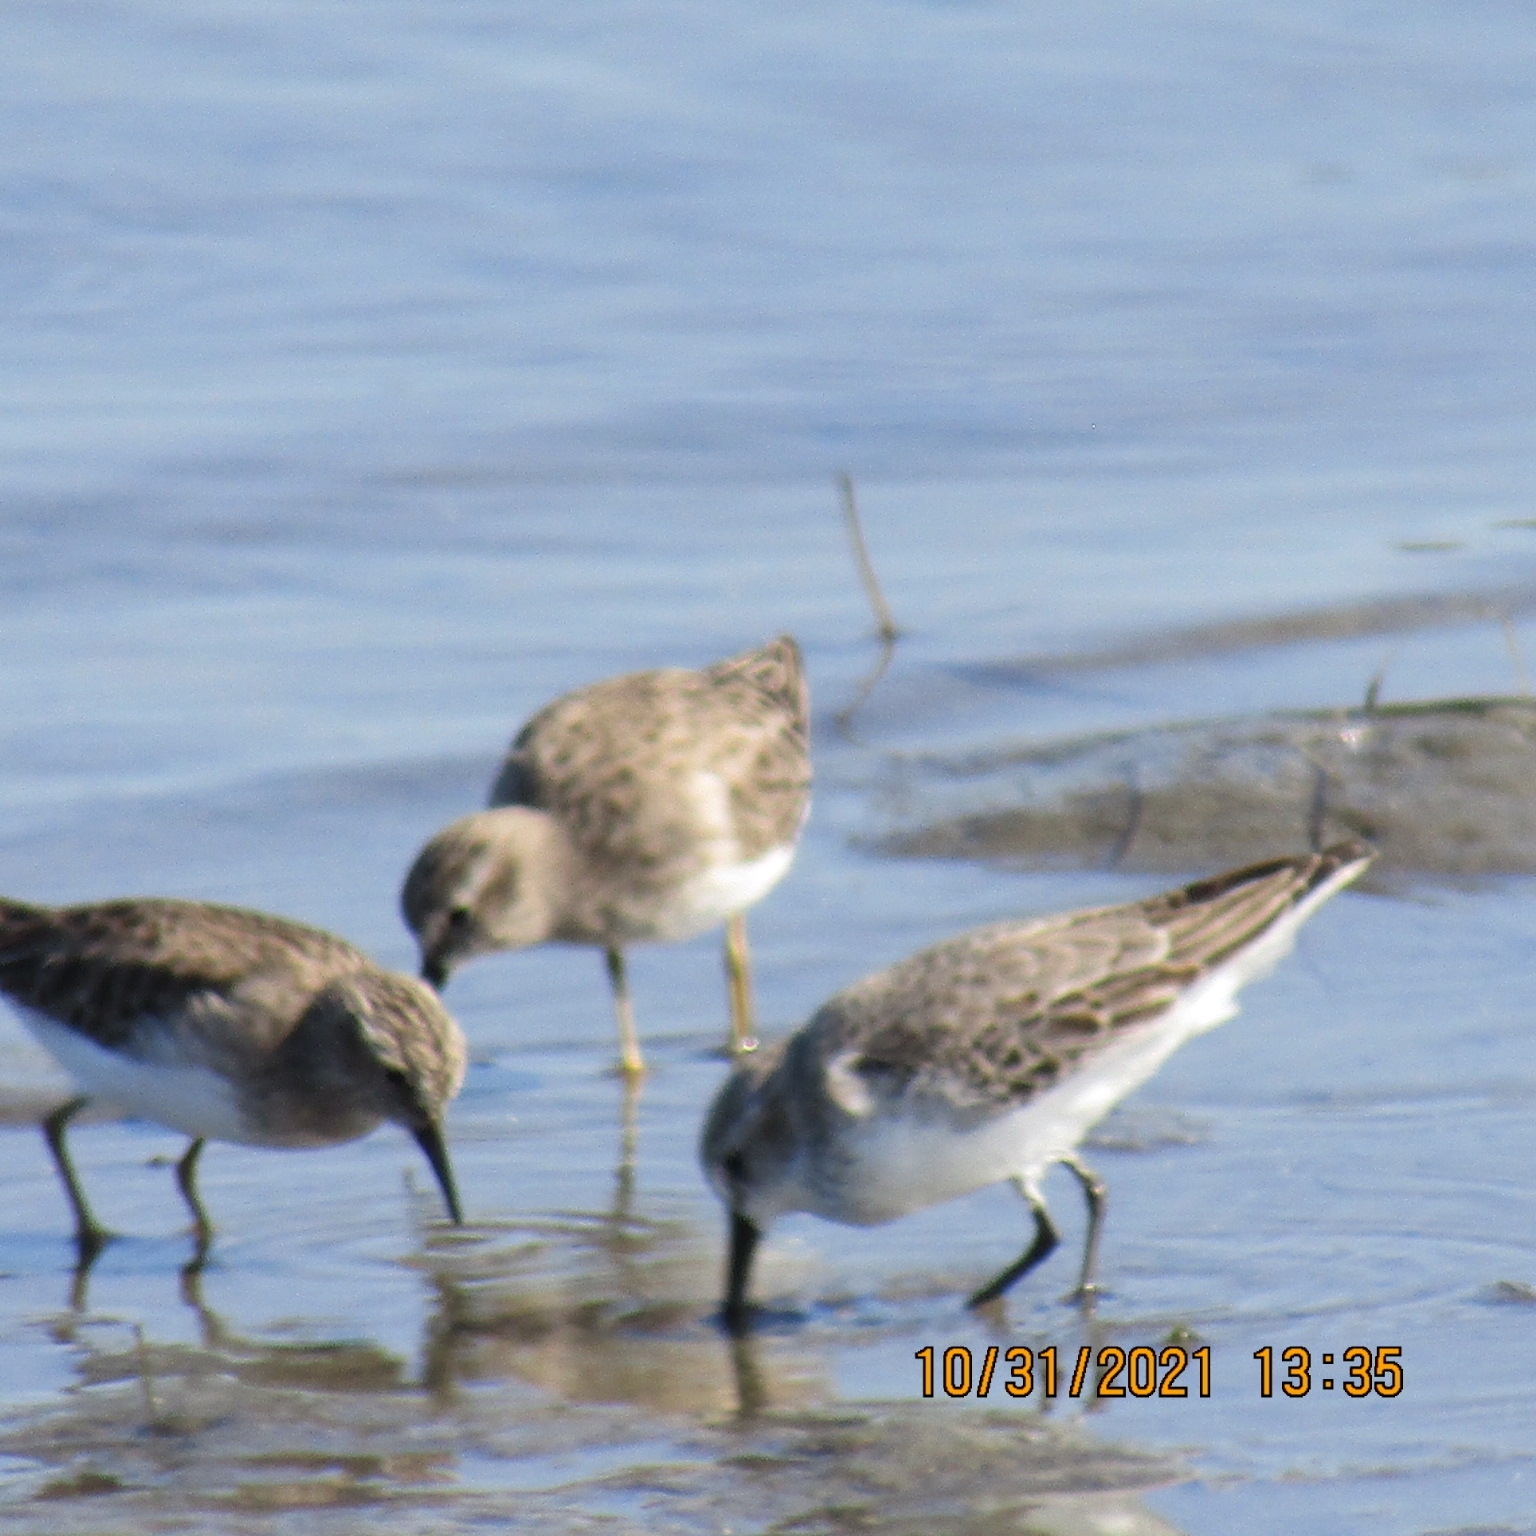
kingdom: Animalia
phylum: Chordata
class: Aves
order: Charadriiformes
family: Scolopacidae
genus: Calidris
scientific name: Calidris mauri
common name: Western sandpiper
